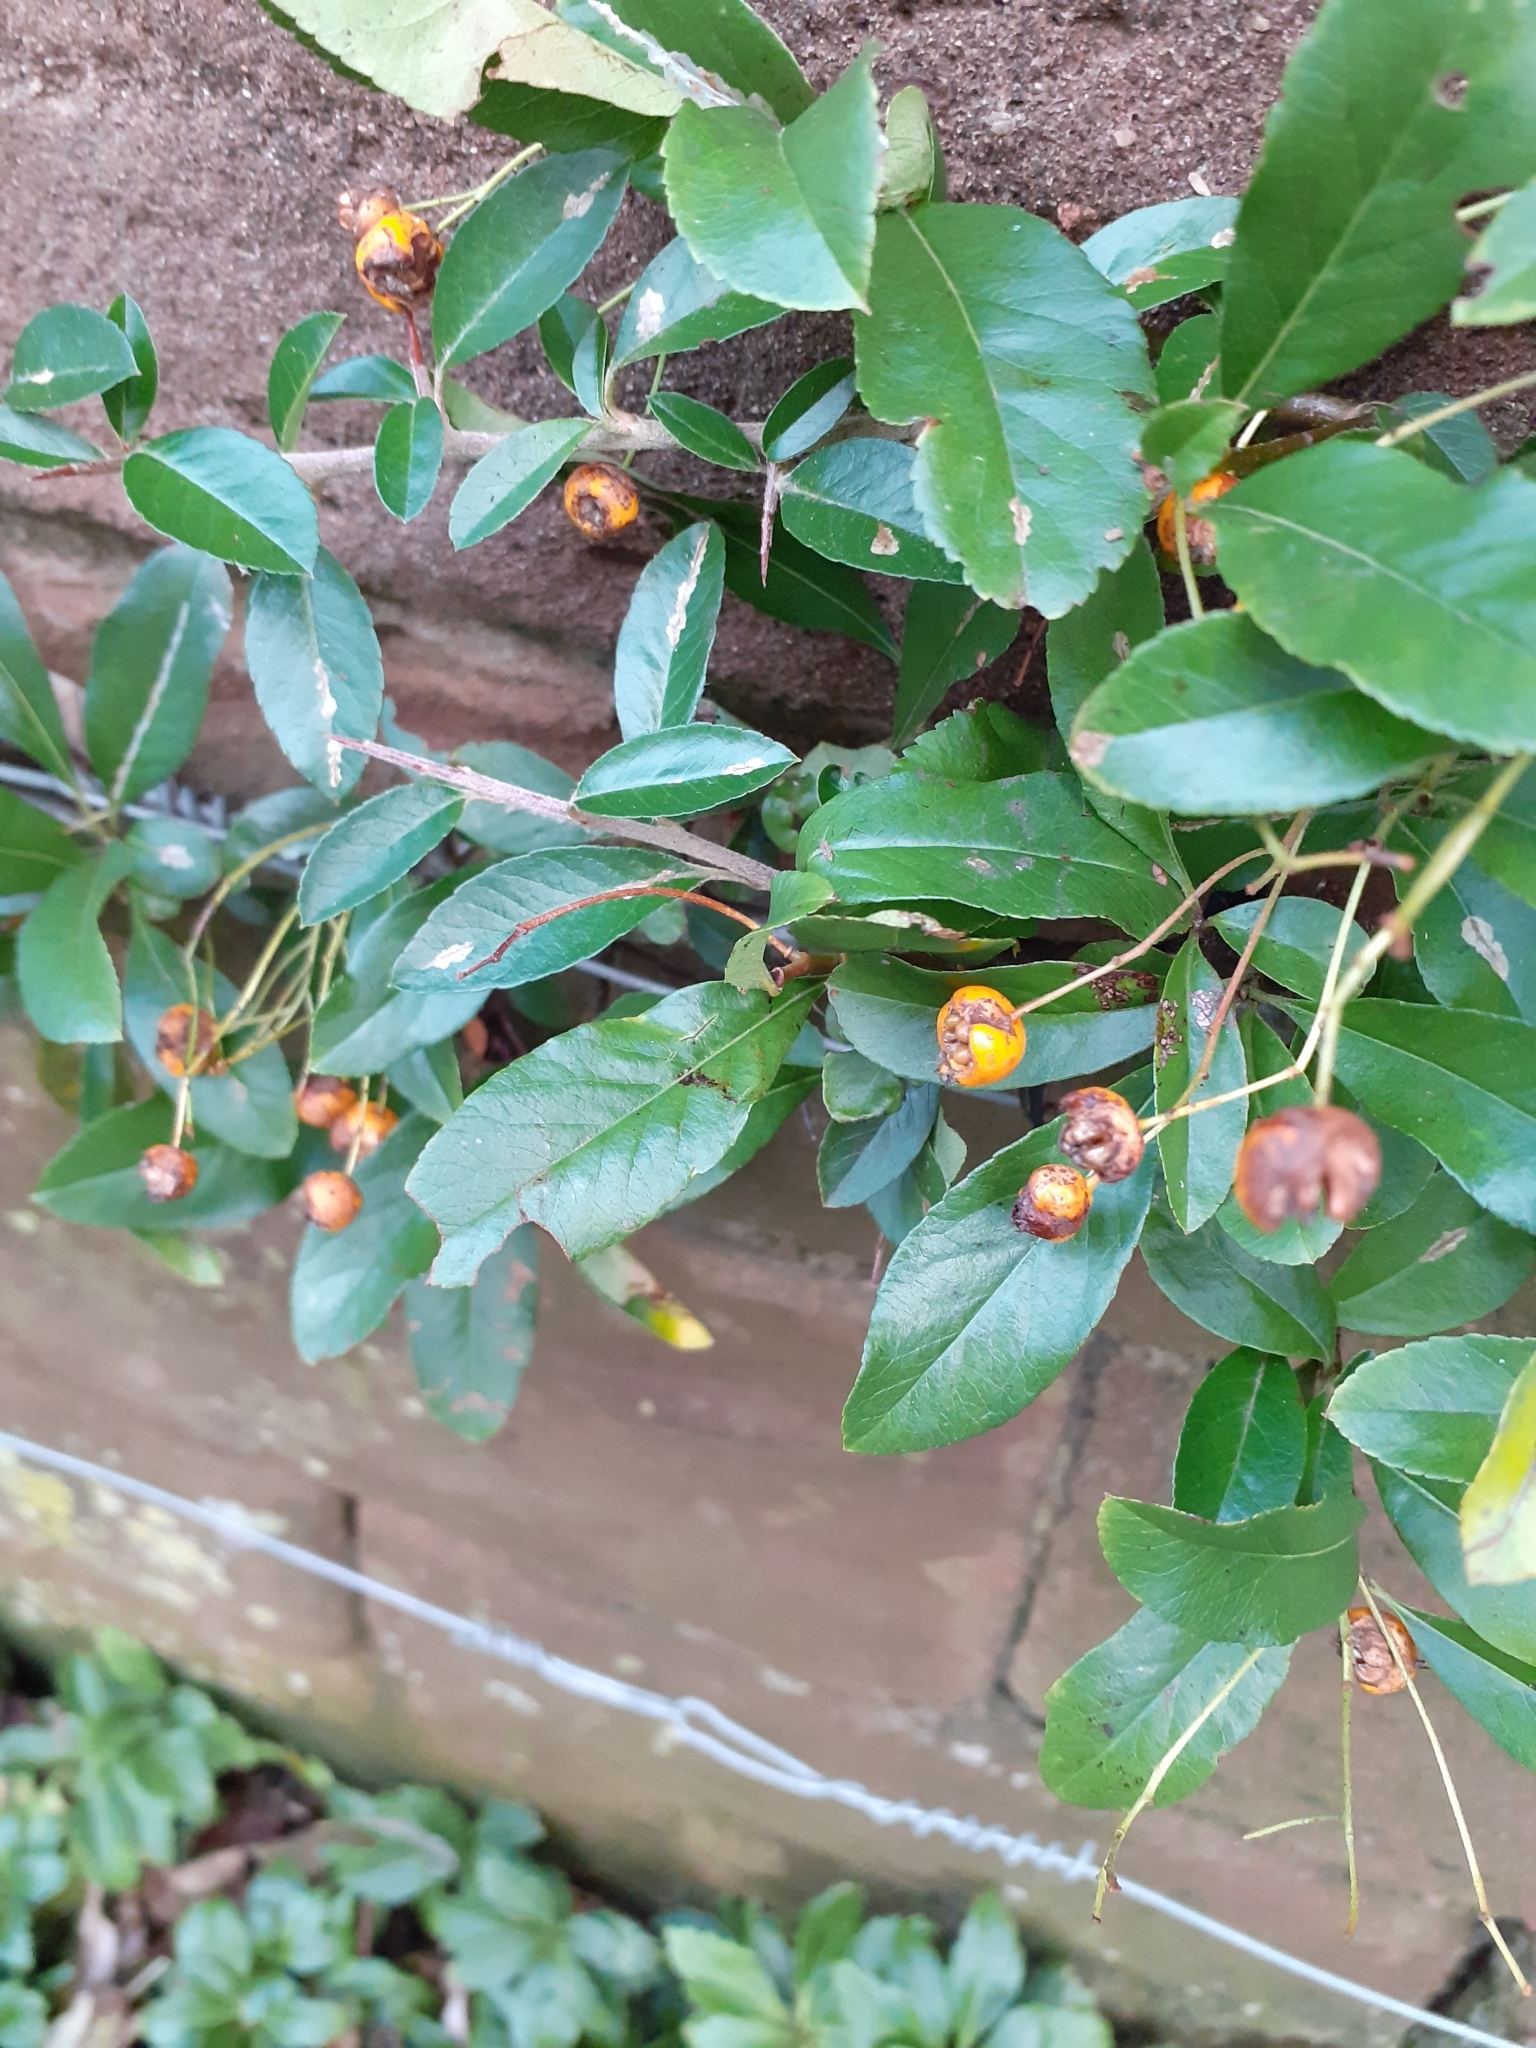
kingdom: Plantae
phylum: Tracheophyta
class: Magnoliopsida
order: Rosales
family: Rosaceae
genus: Pyracantha
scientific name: Pyracantha coccinea
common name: Firethorn
